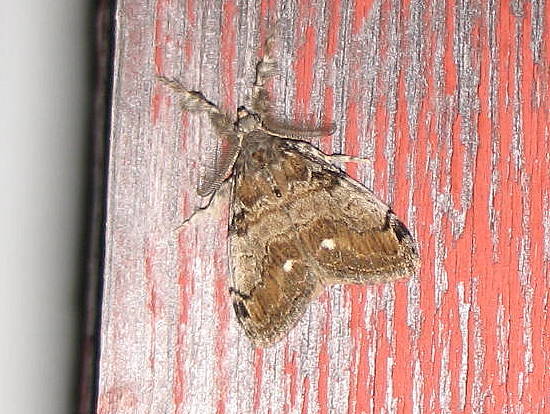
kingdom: Animalia
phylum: Arthropoda
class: Insecta
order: Lepidoptera
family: Erebidae
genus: Orgyia
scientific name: Orgyia leucostigma
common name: White-marked tussock moth
